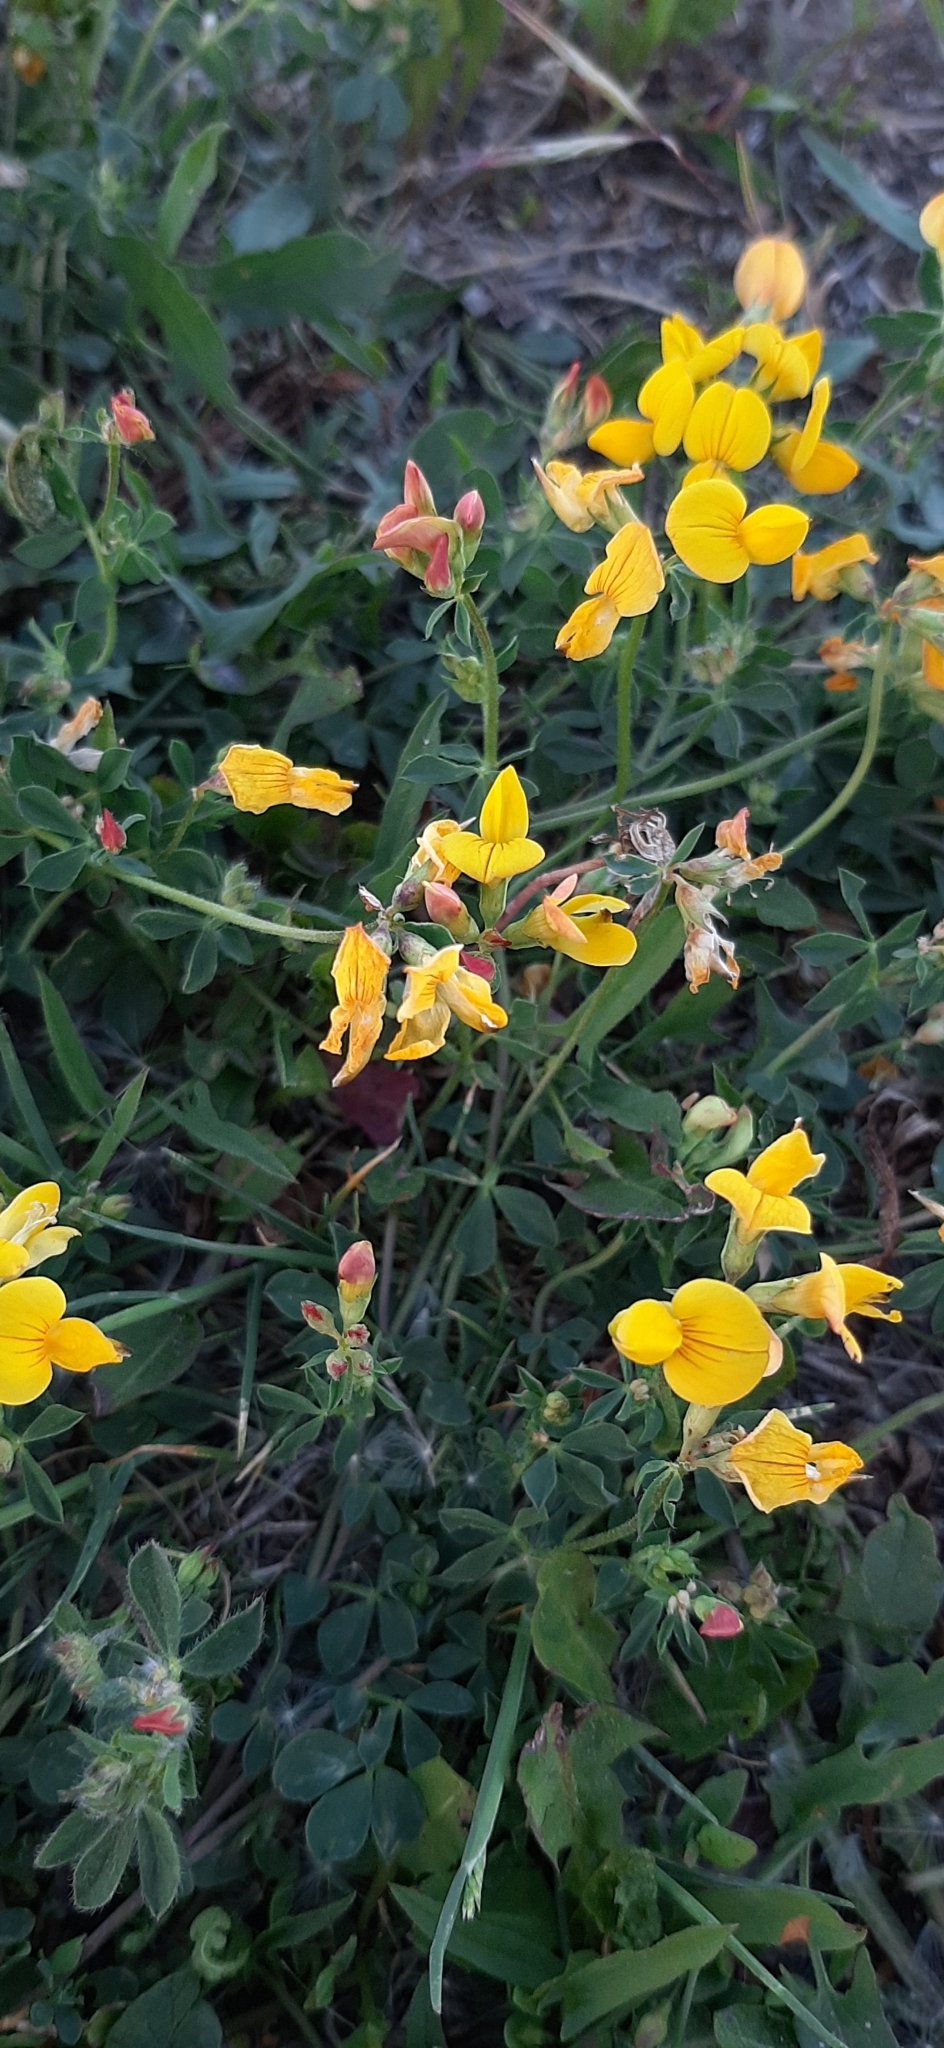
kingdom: Plantae
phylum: Tracheophyta
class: Magnoliopsida
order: Fabales
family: Fabaceae
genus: Lotus
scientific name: Lotus corniculatus
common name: Common bird's-foot-trefoil
